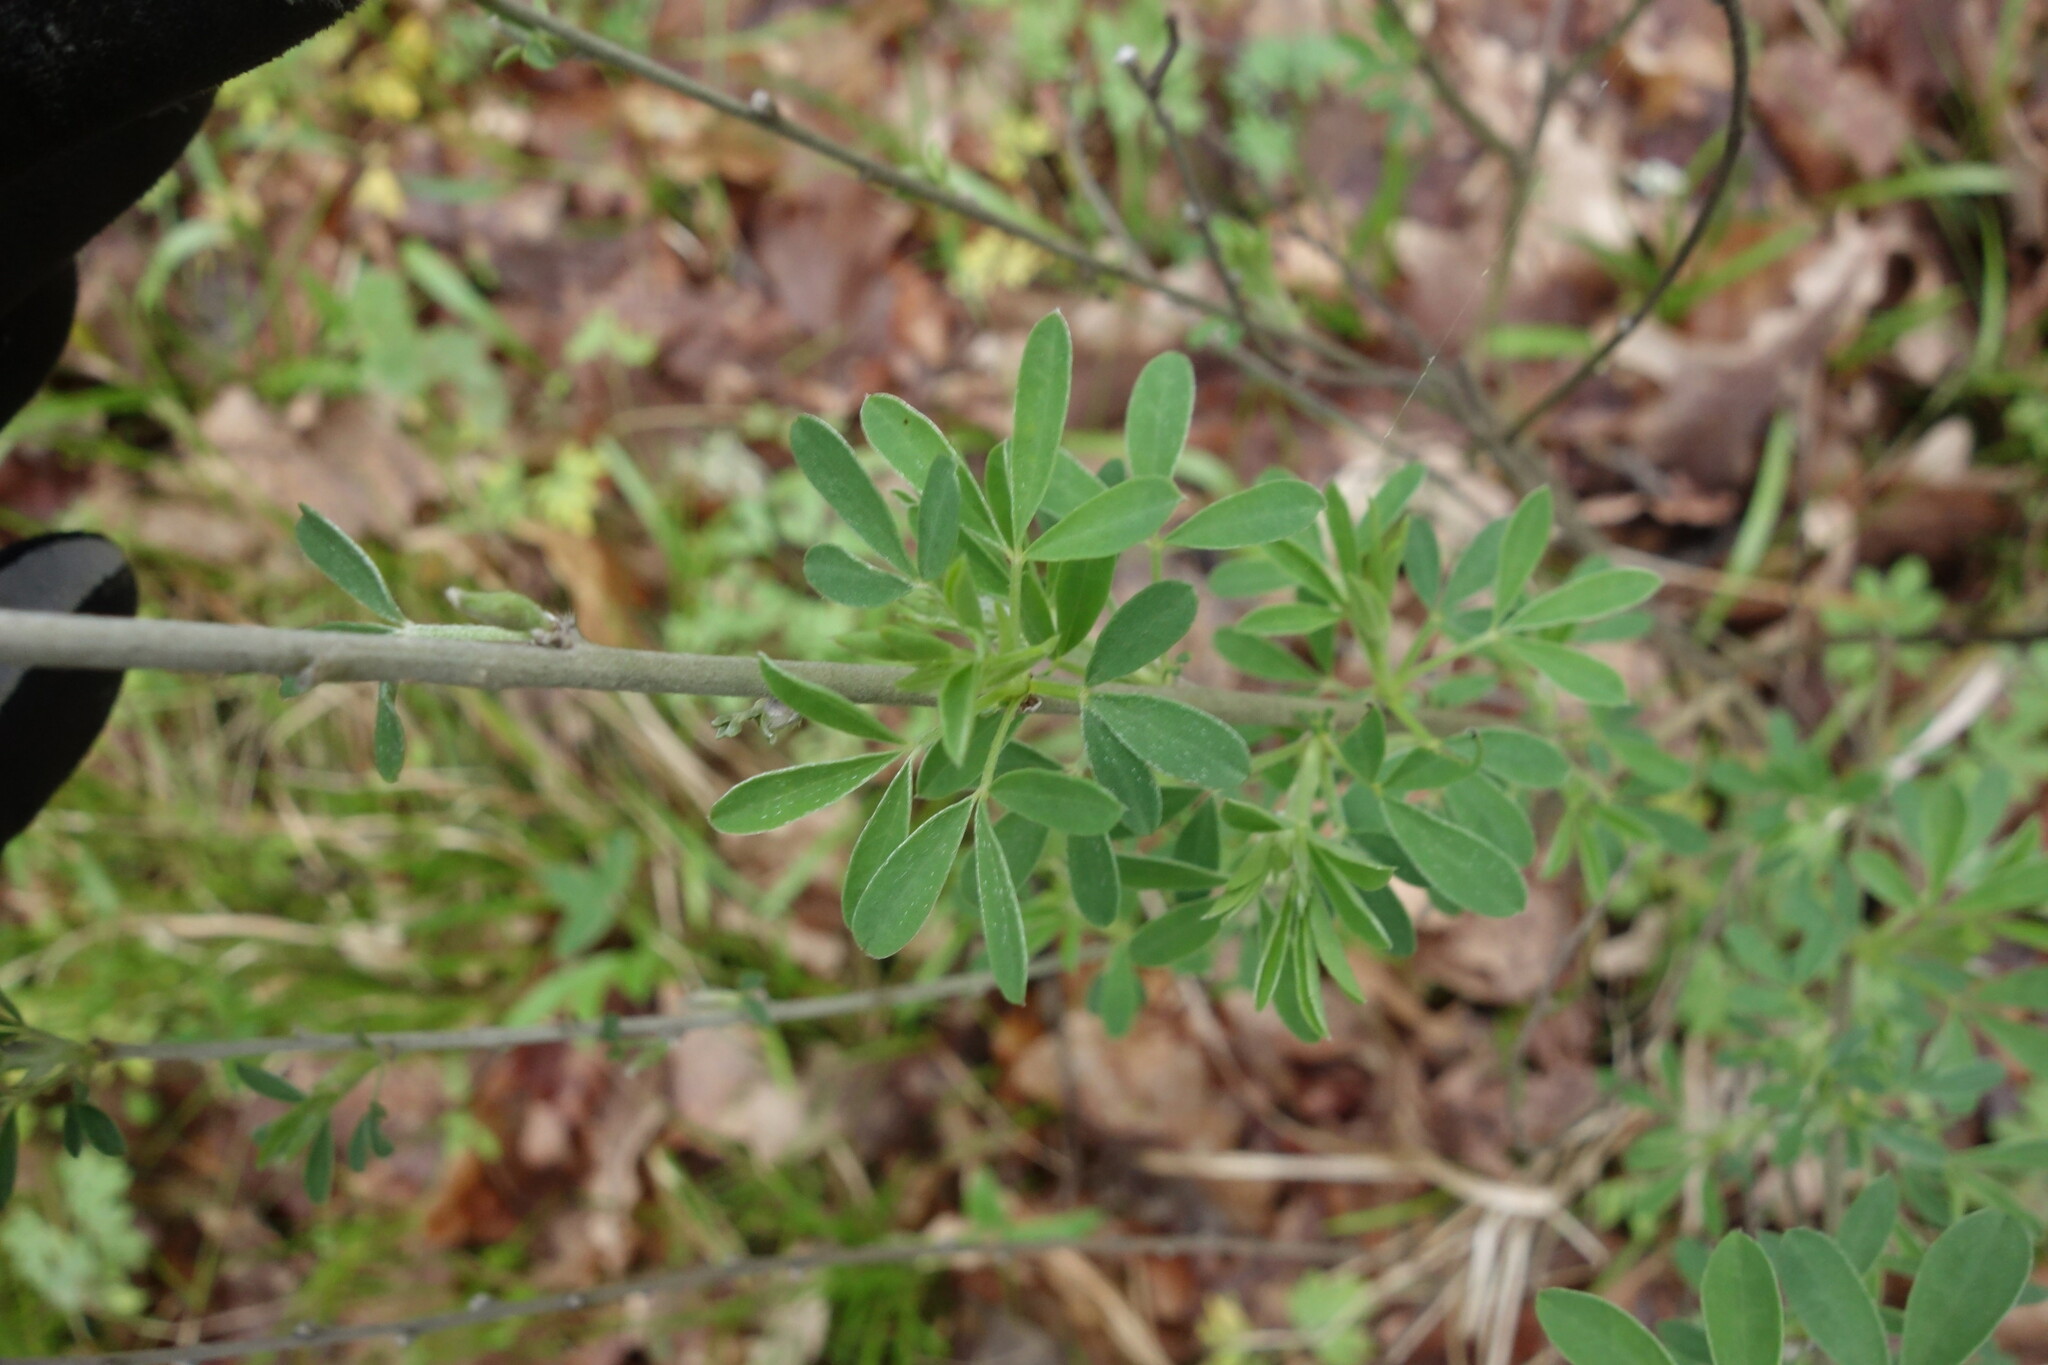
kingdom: Plantae
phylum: Tracheophyta
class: Magnoliopsida
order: Fabales
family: Fabaceae
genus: Chamaecytisus
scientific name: Chamaecytisus ruthenicus
